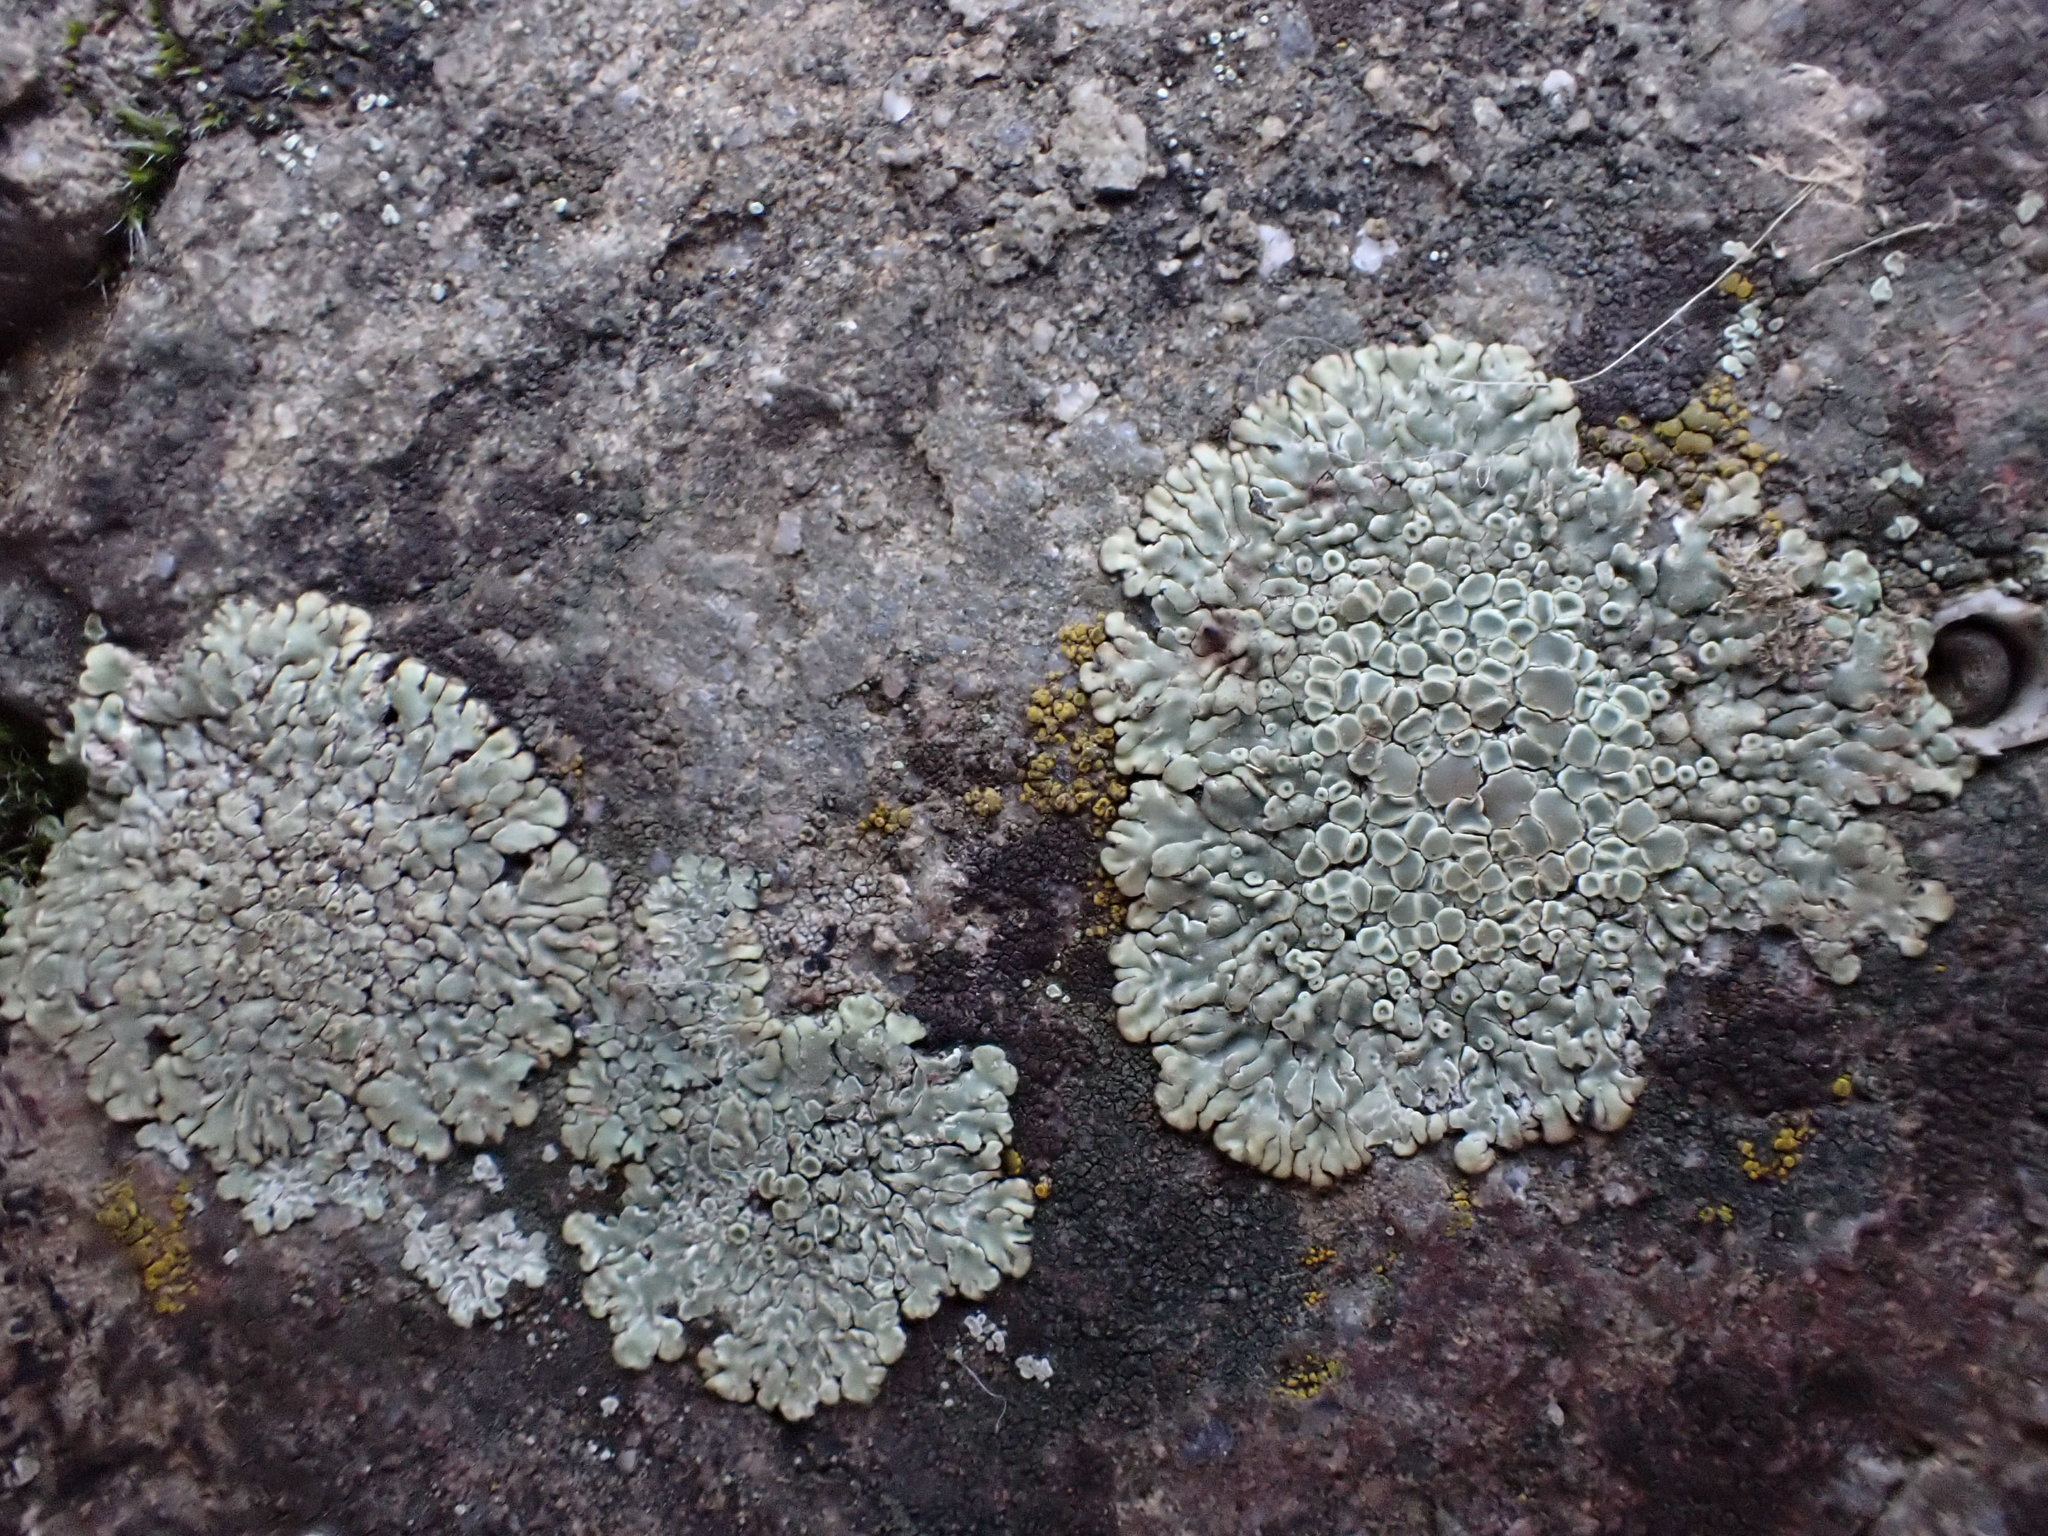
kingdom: Fungi
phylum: Ascomycota
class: Lecanoromycetes
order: Lecanorales
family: Lecanoraceae
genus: Protoparmeliopsis
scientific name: Protoparmeliopsis muralis
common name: Stonewall rim lichen
